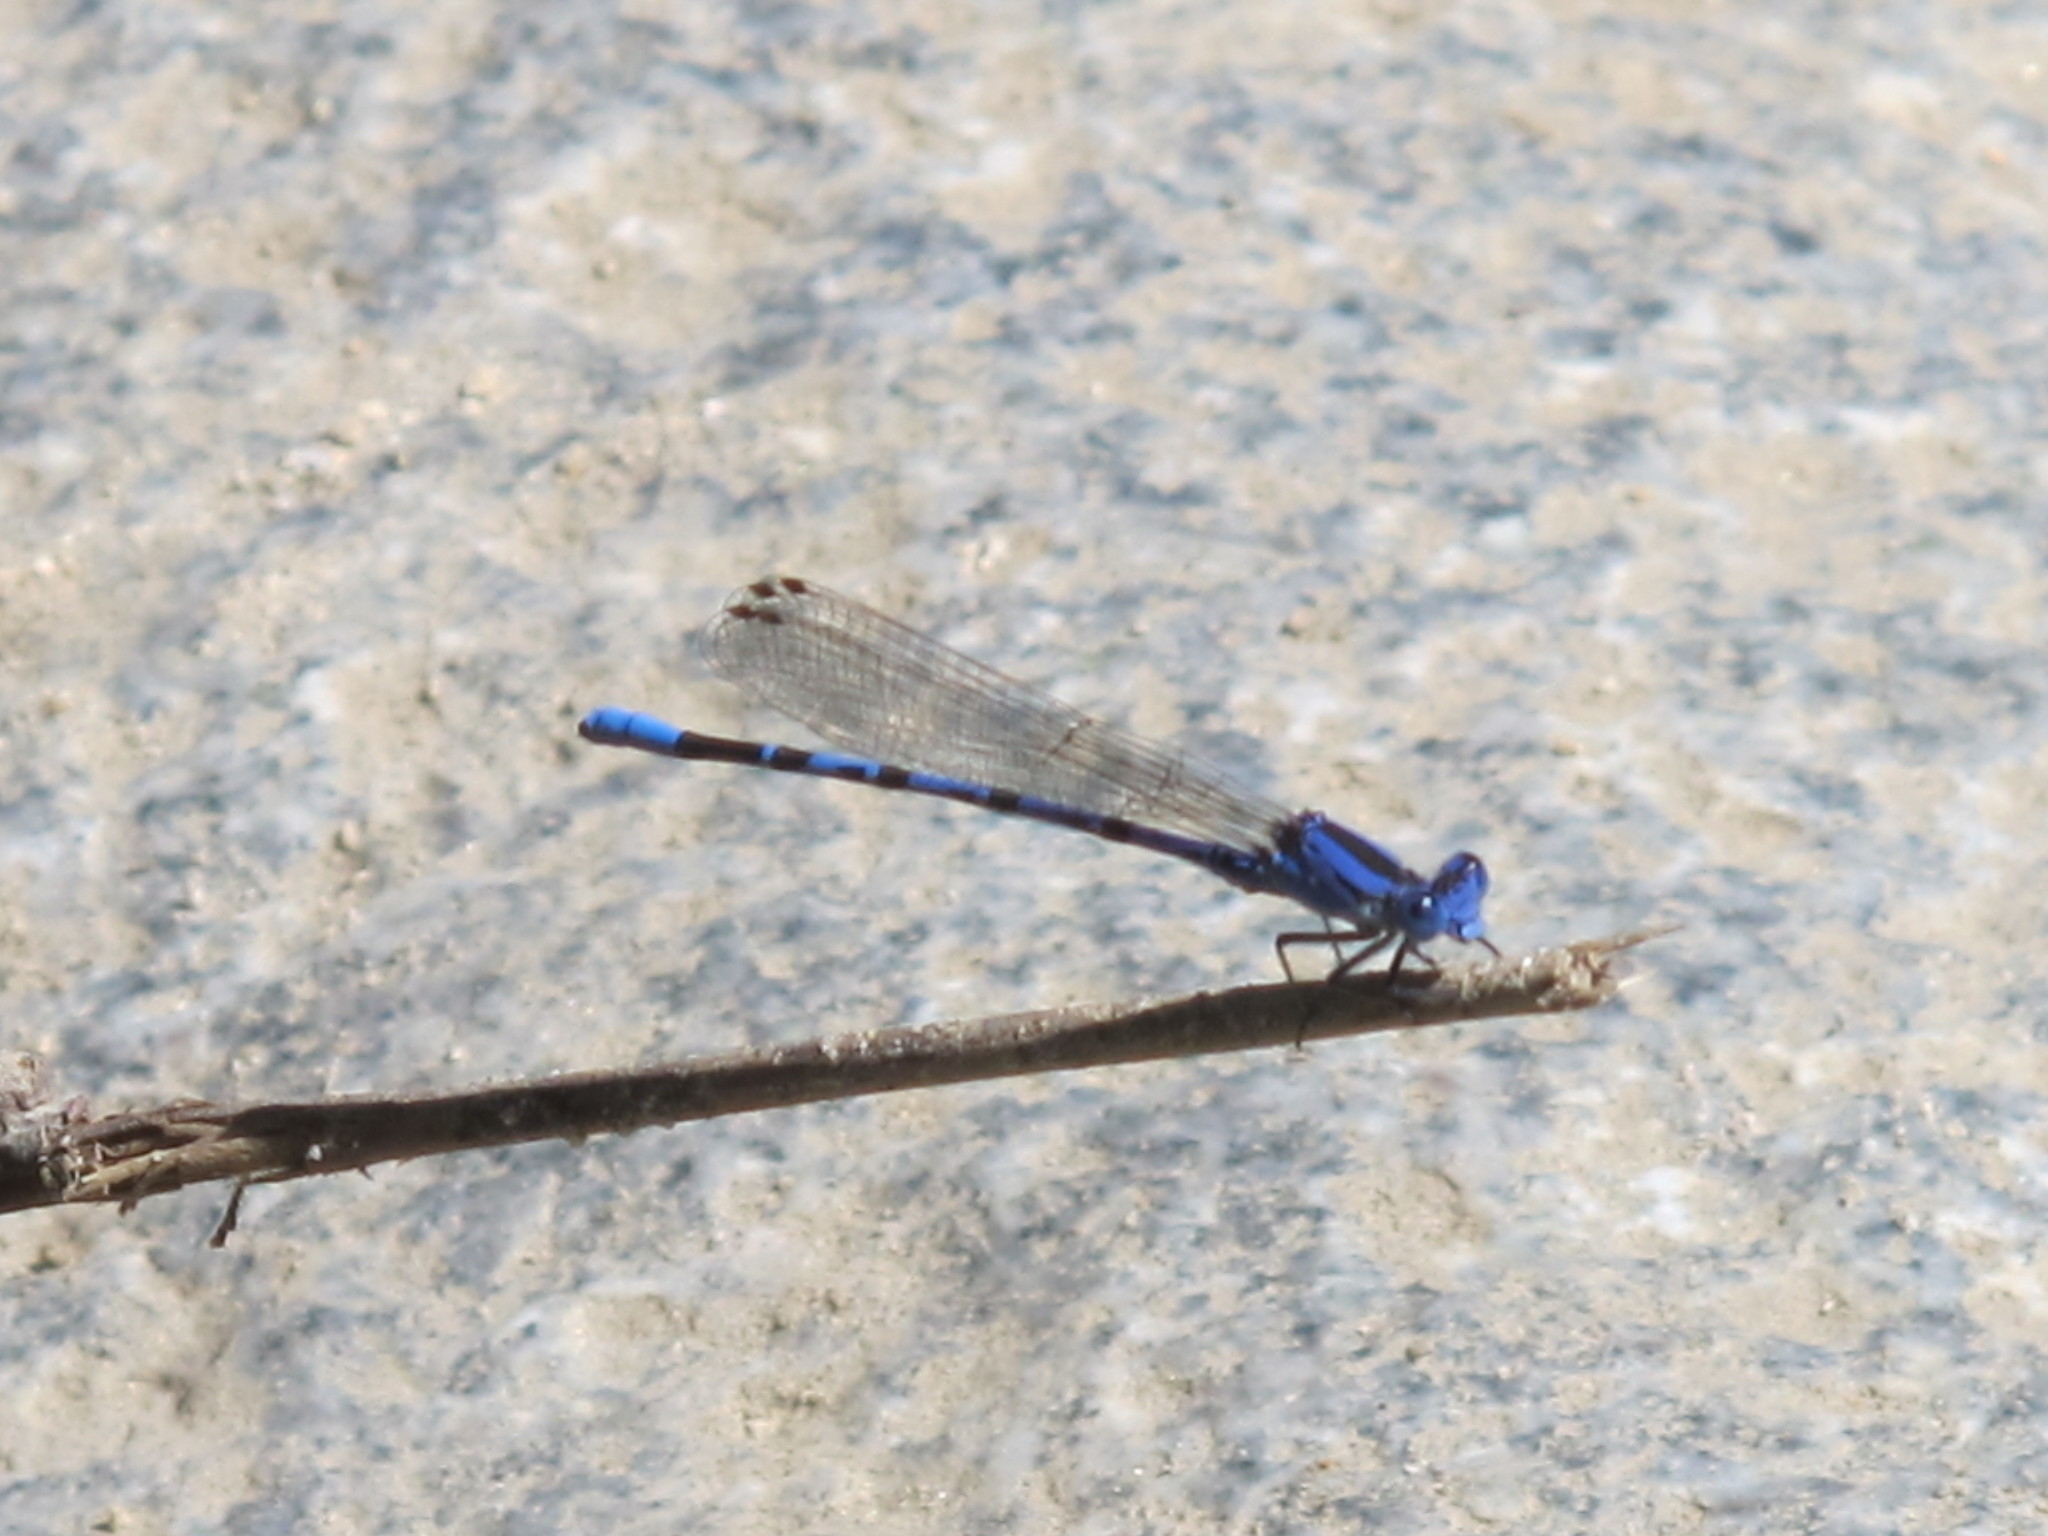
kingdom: Animalia
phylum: Arthropoda
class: Insecta
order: Odonata
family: Coenagrionidae
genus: Argia
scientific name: Argia vivida
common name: Vivid dancer
